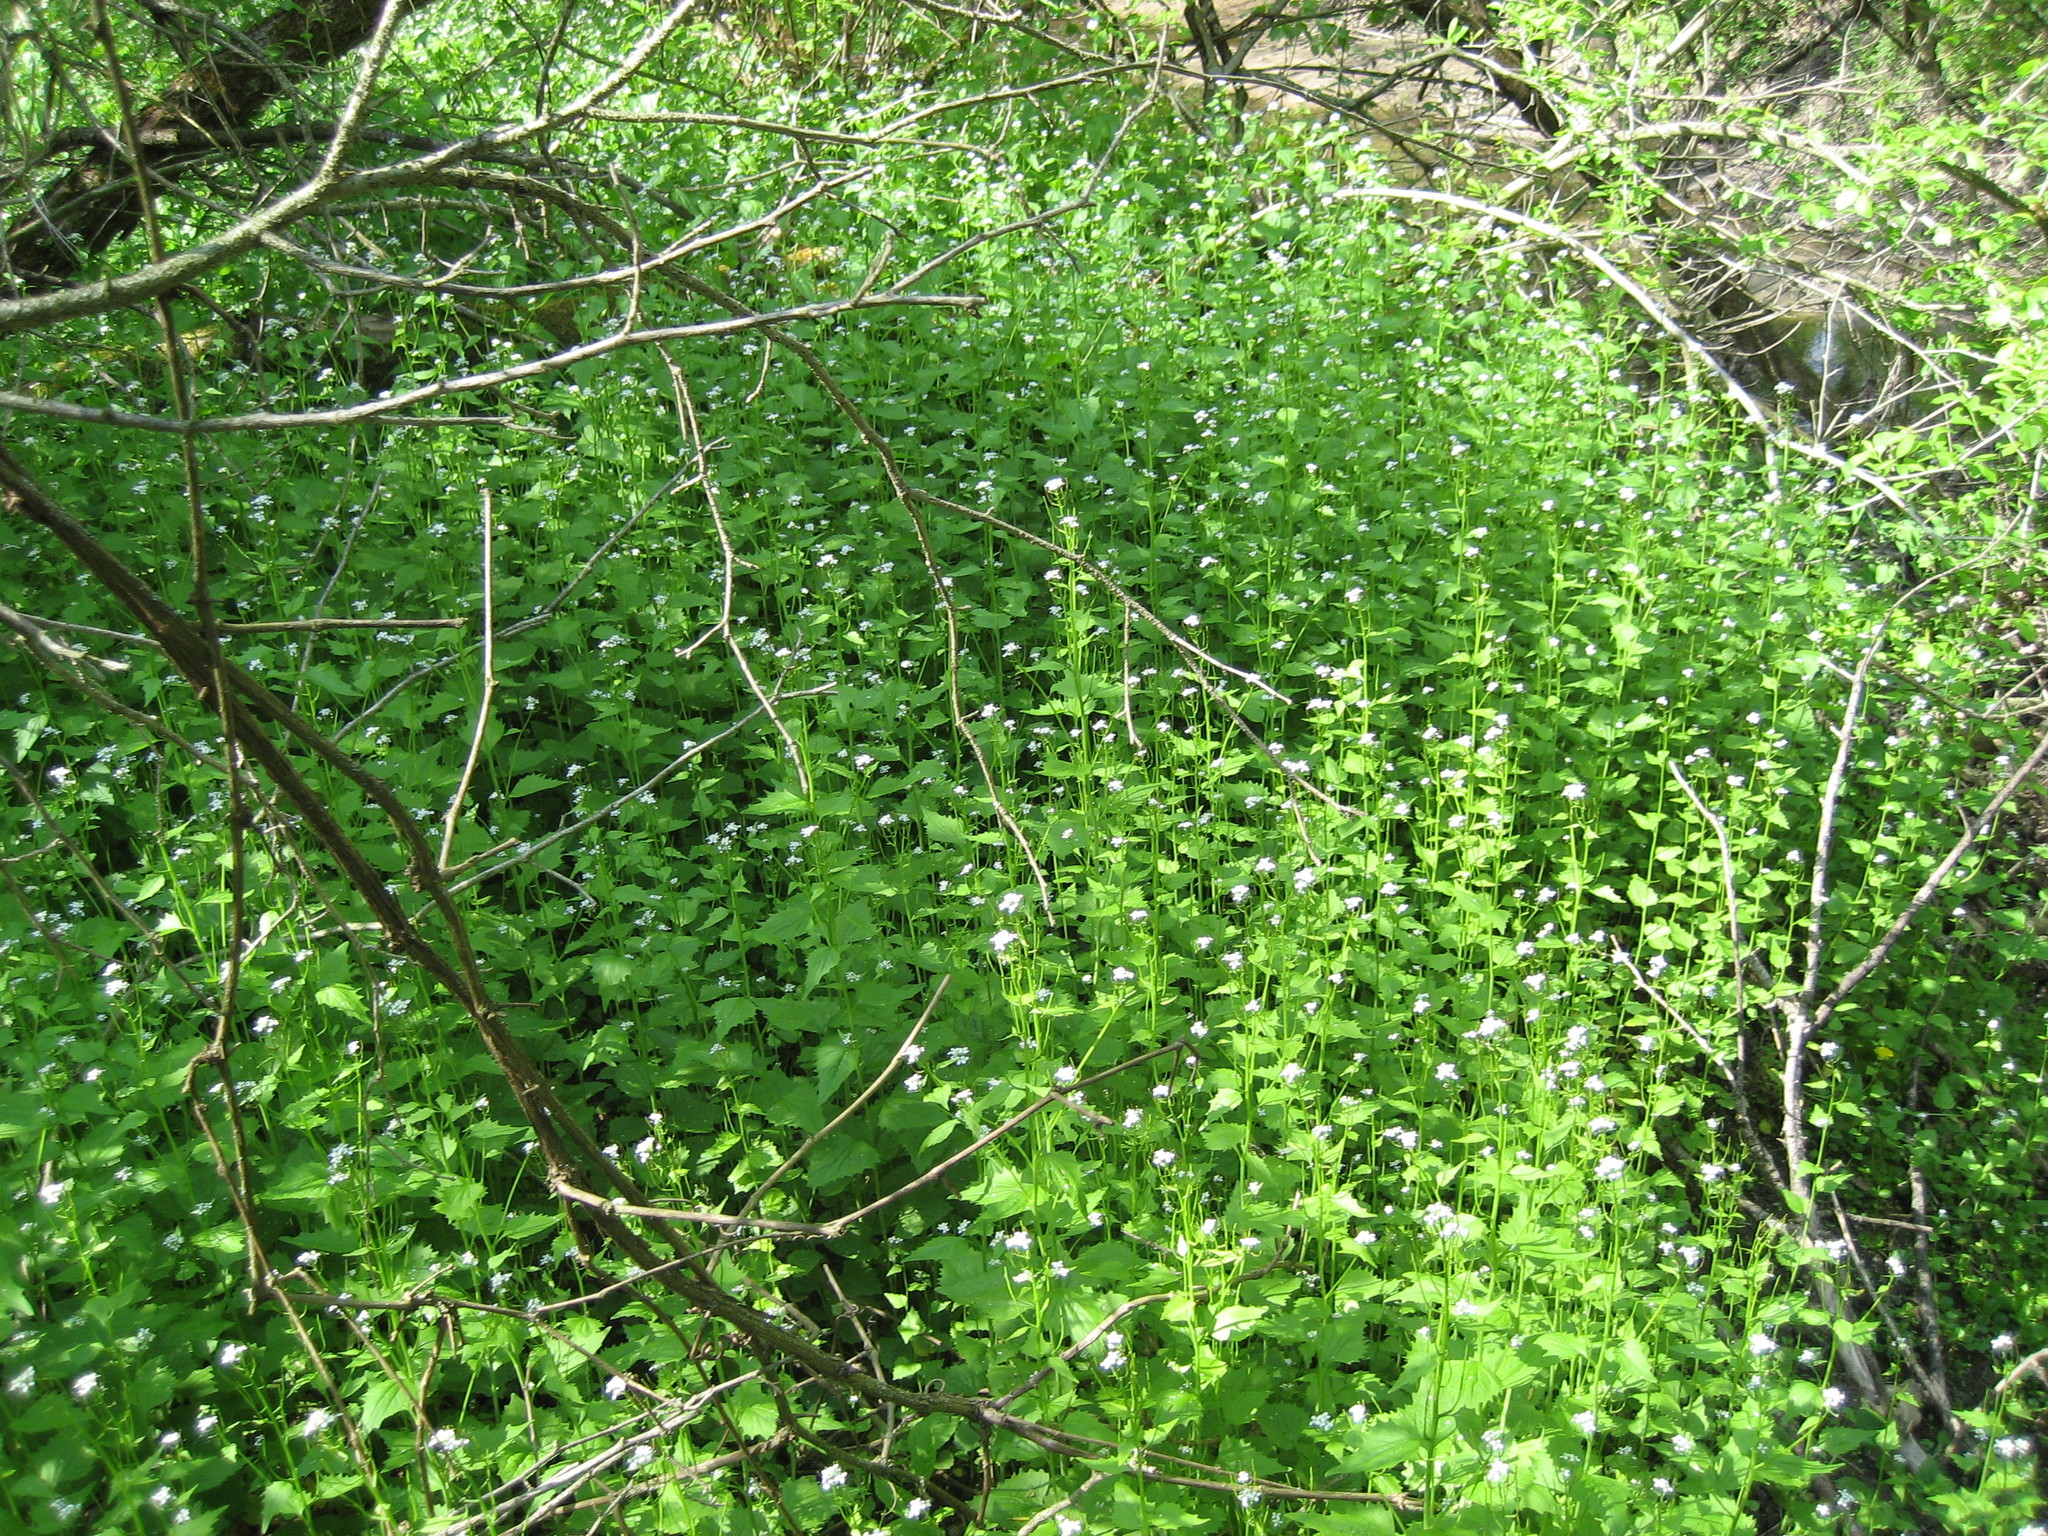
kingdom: Plantae
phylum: Tracheophyta
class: Magnoliopsida
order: Brassicales
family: Brassicaceae
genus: Alliaria
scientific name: Alliaria petiolata
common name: Garlic mustard
